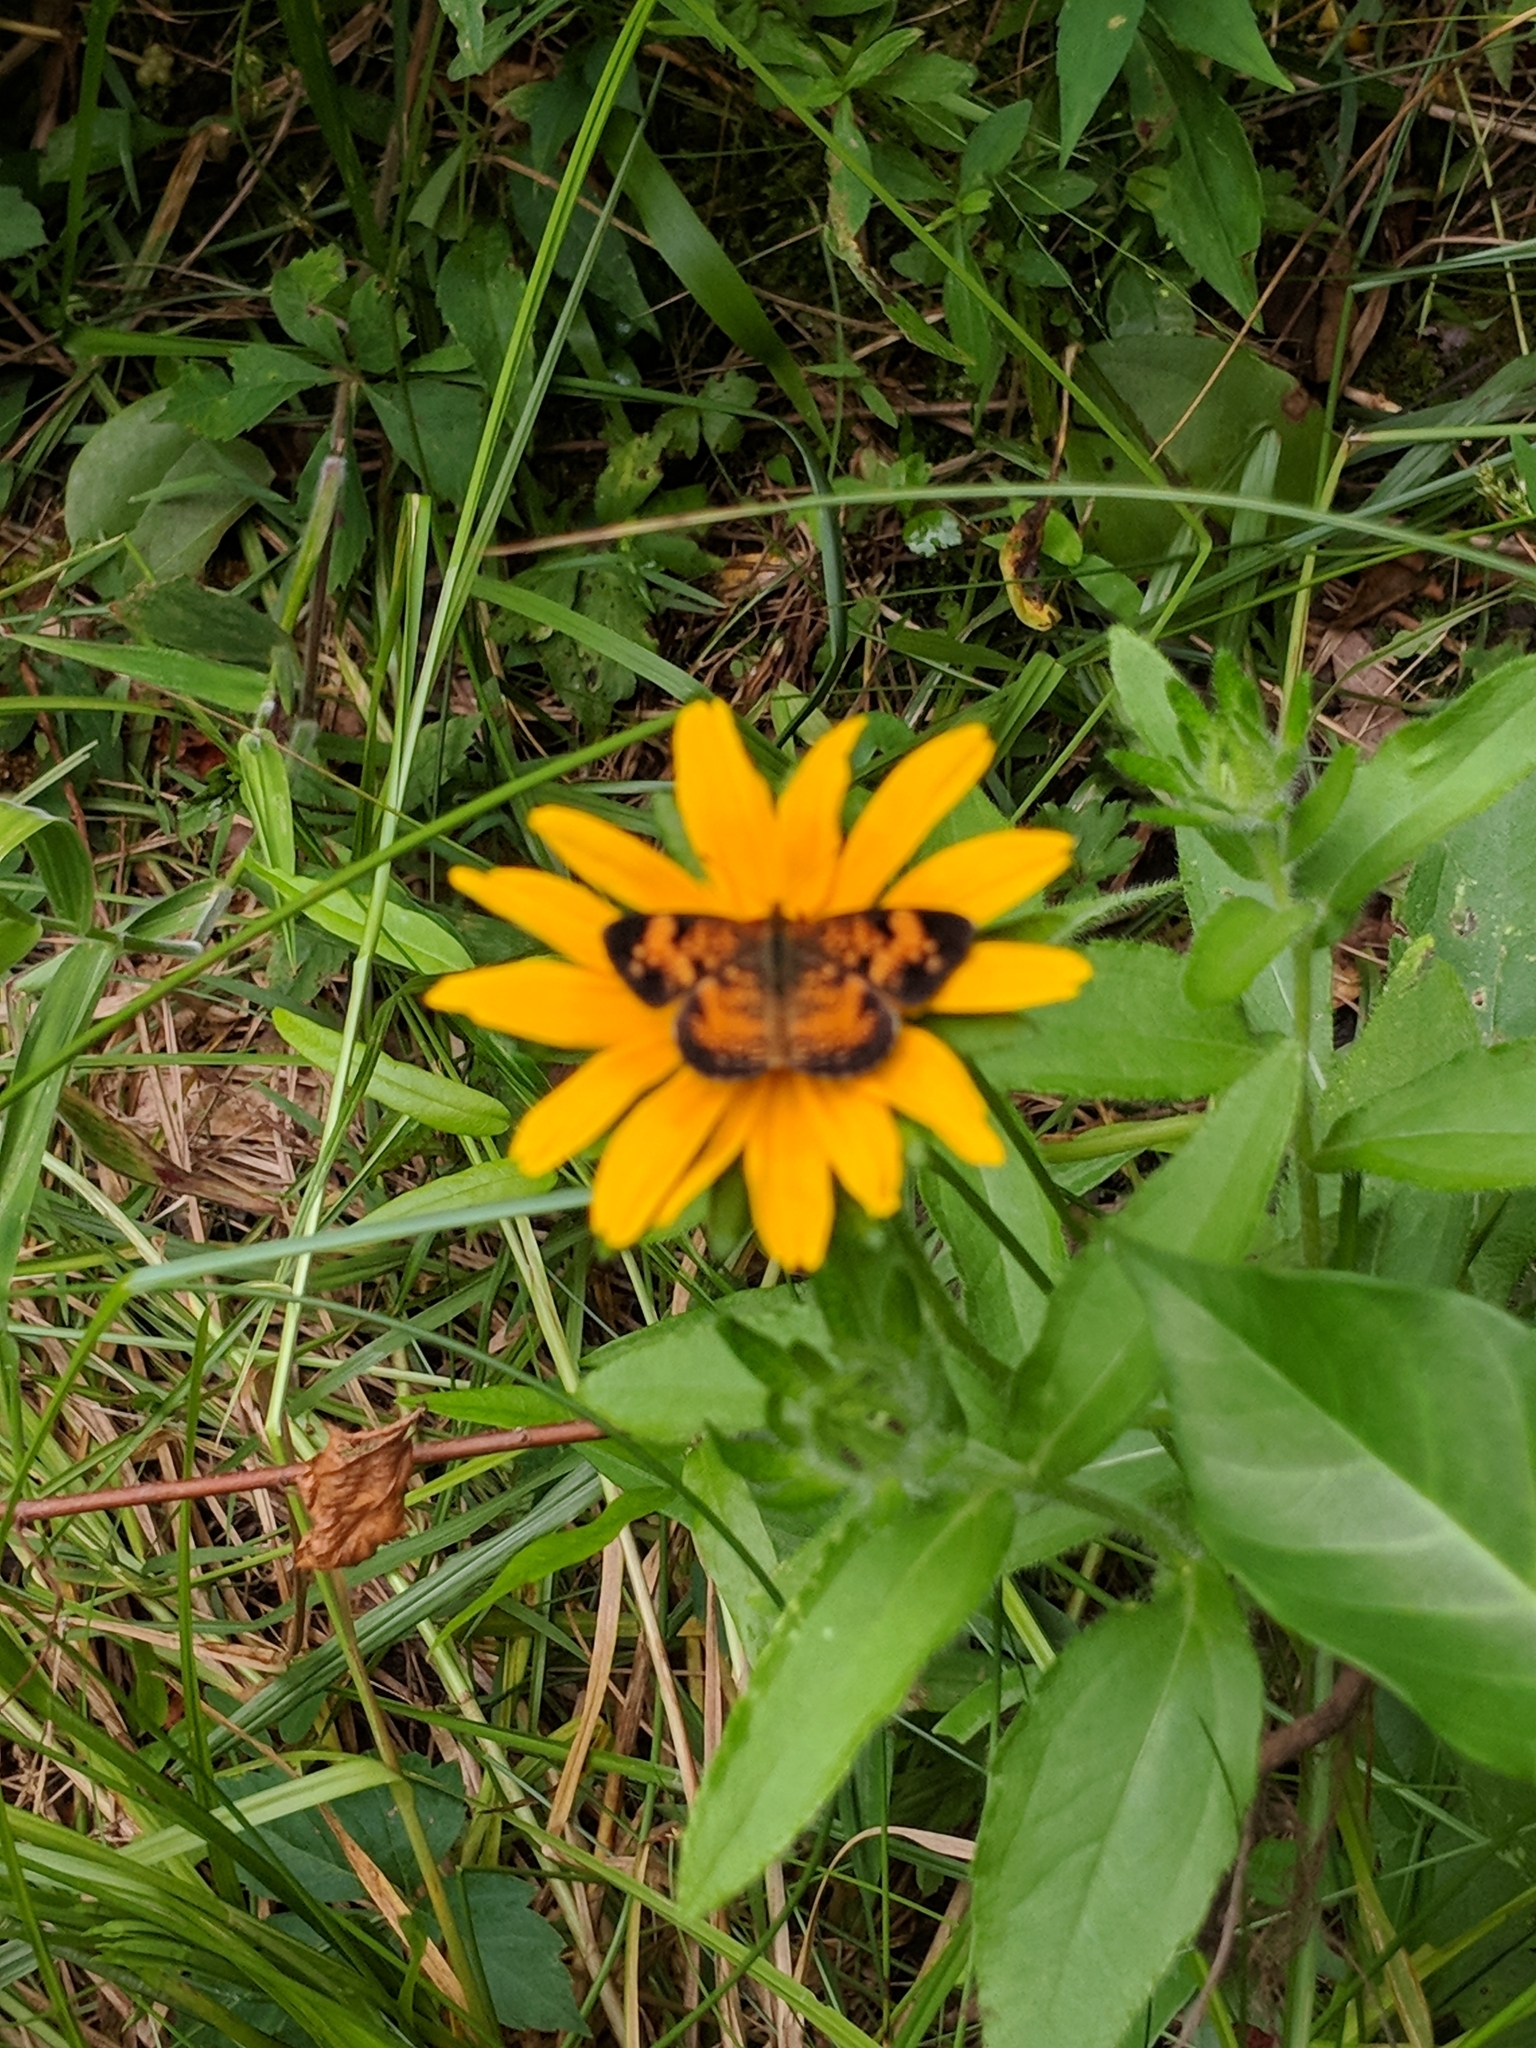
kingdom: Animalia
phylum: Arthropoda
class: Insecta
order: Lepidoptera
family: Nymphalidae
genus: Phyciodes
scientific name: Phyciodes tharos
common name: Pearl crescent
